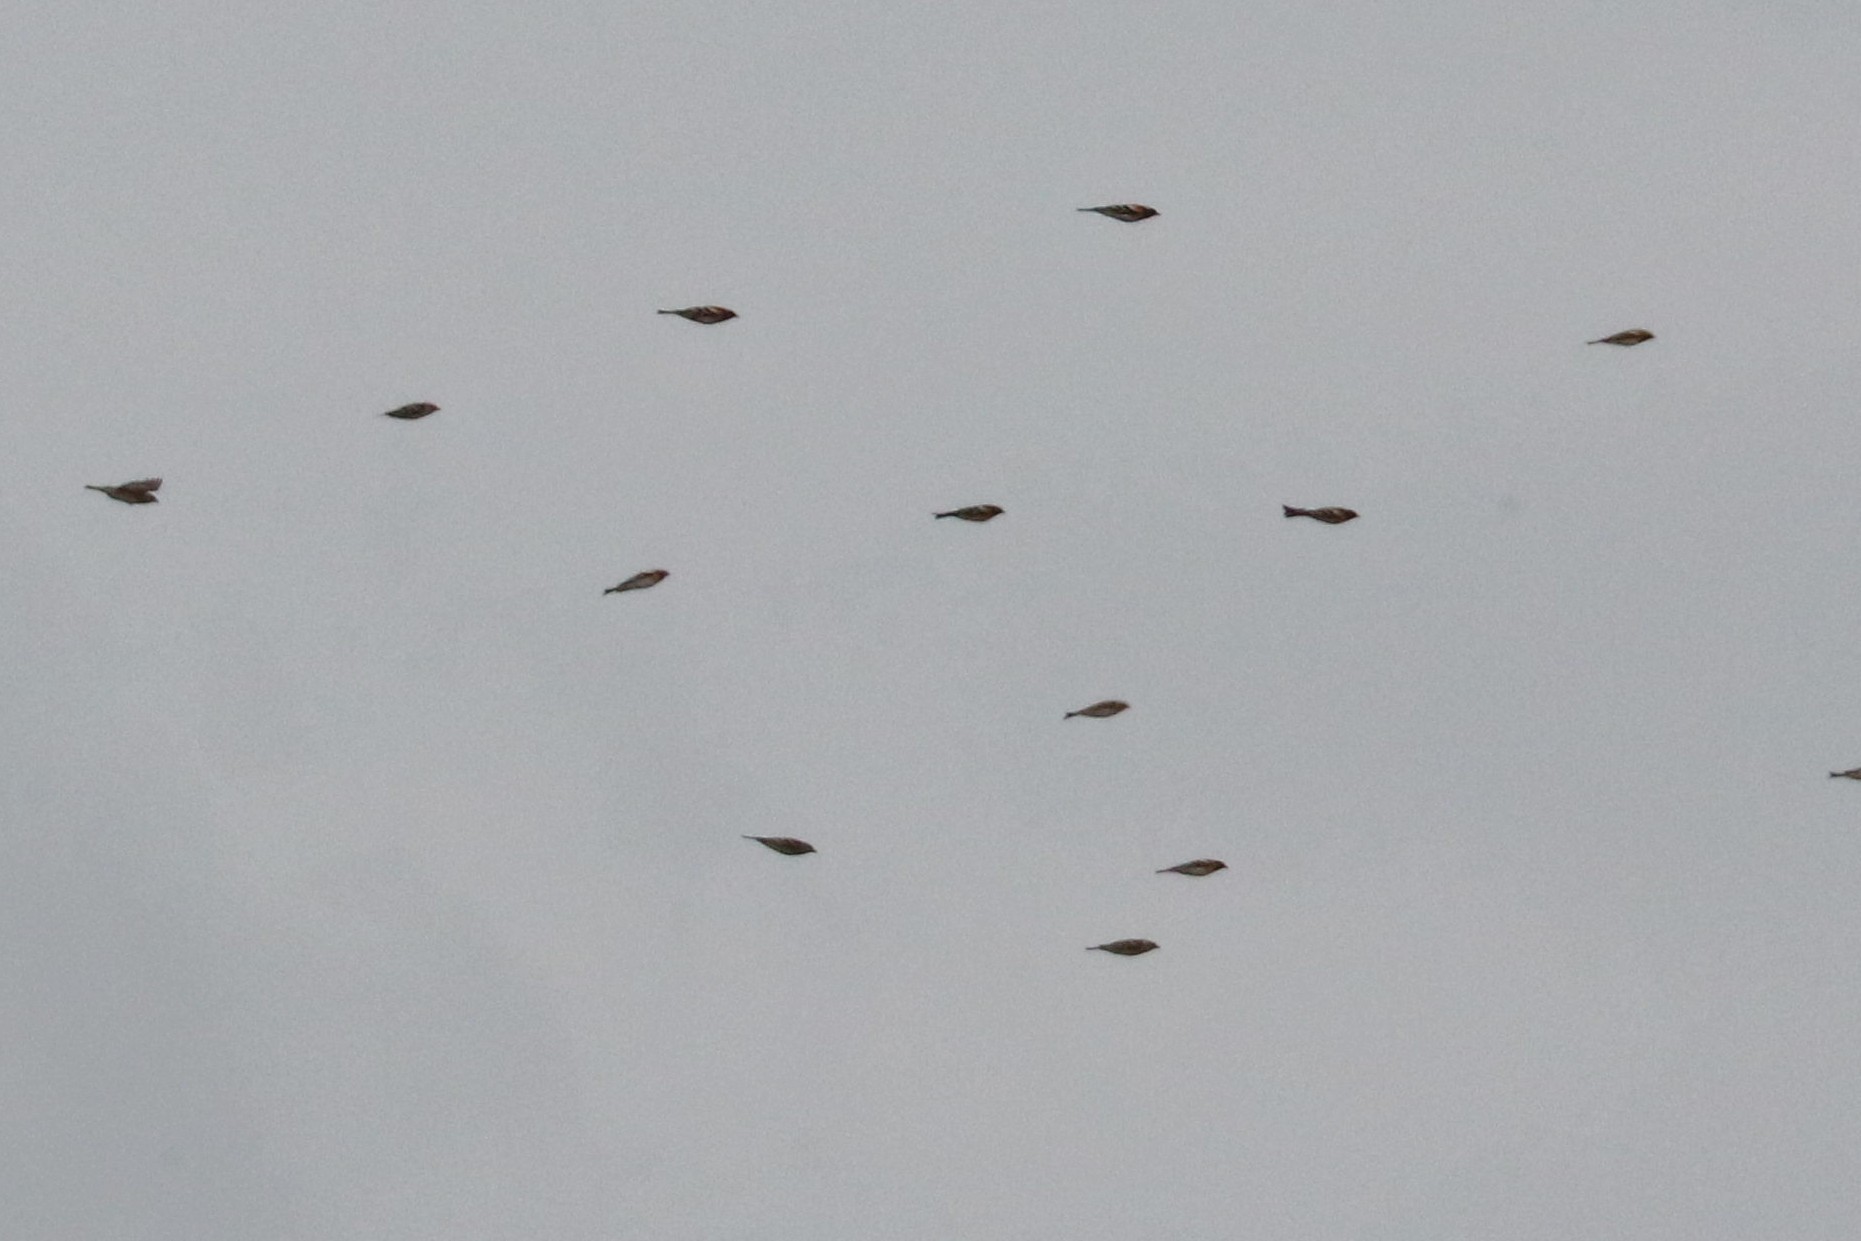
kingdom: Animalia
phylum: Chordata
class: Aves
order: Passeriformes
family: Fringillidae
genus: Fringilla
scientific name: Fringilla montifringilla
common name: Brambling
